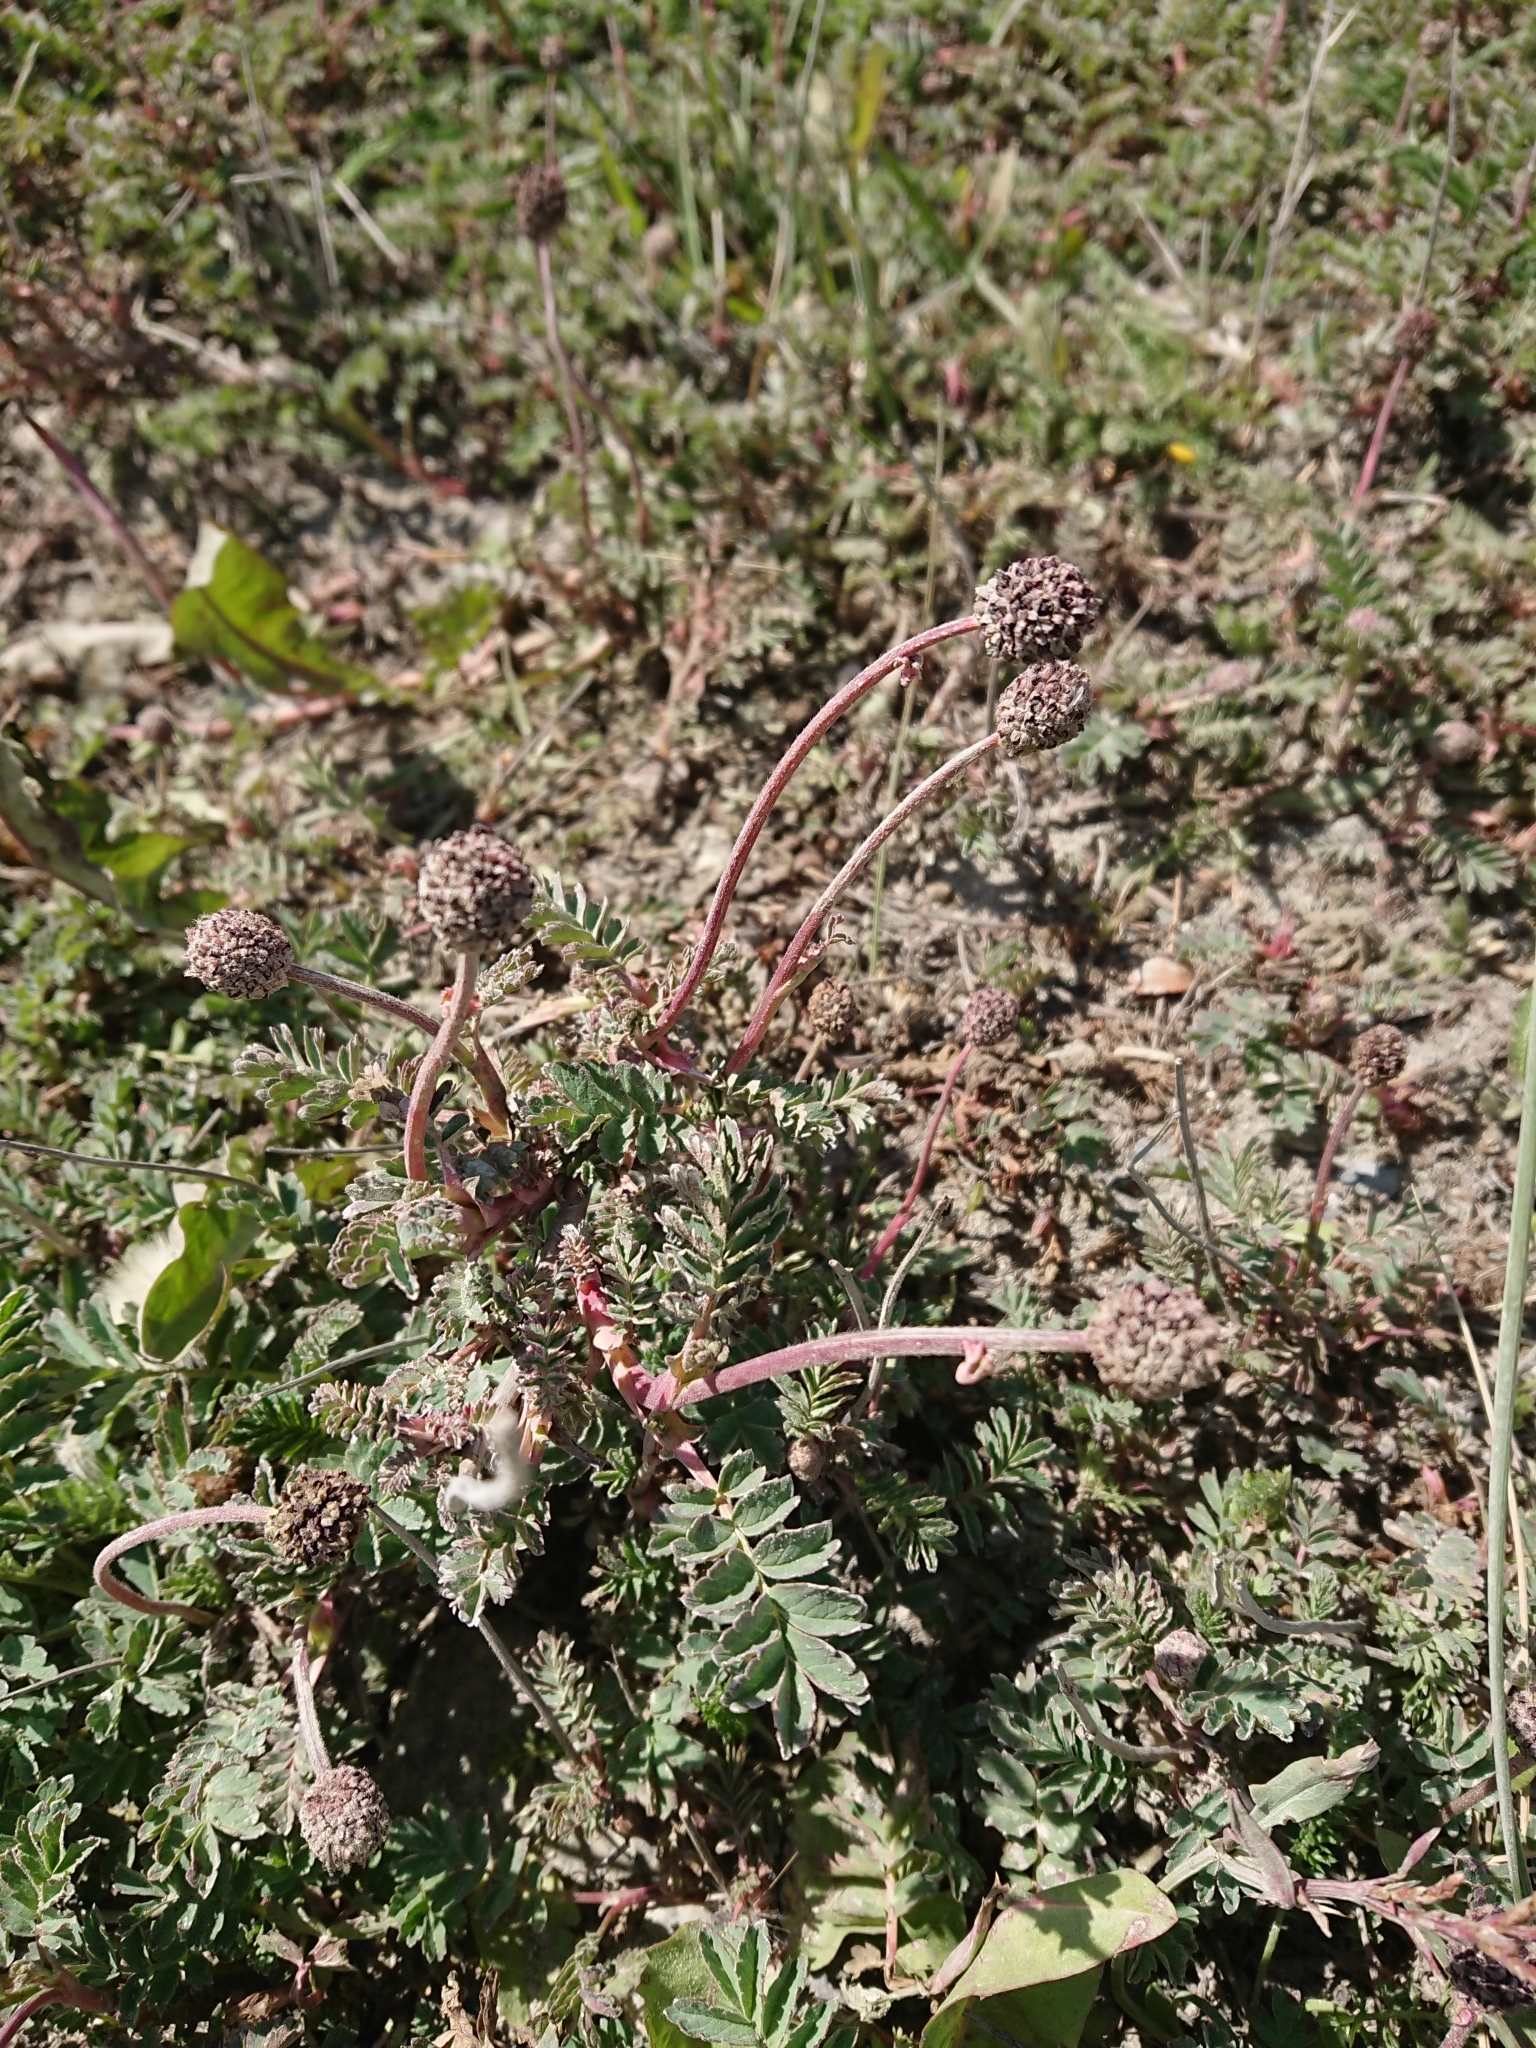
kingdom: Plantae
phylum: Tracheophyta
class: Magnoliopsida
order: Rosales
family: Rosaceae
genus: Acaena
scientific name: Acaena magellanica
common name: New zealand burr
